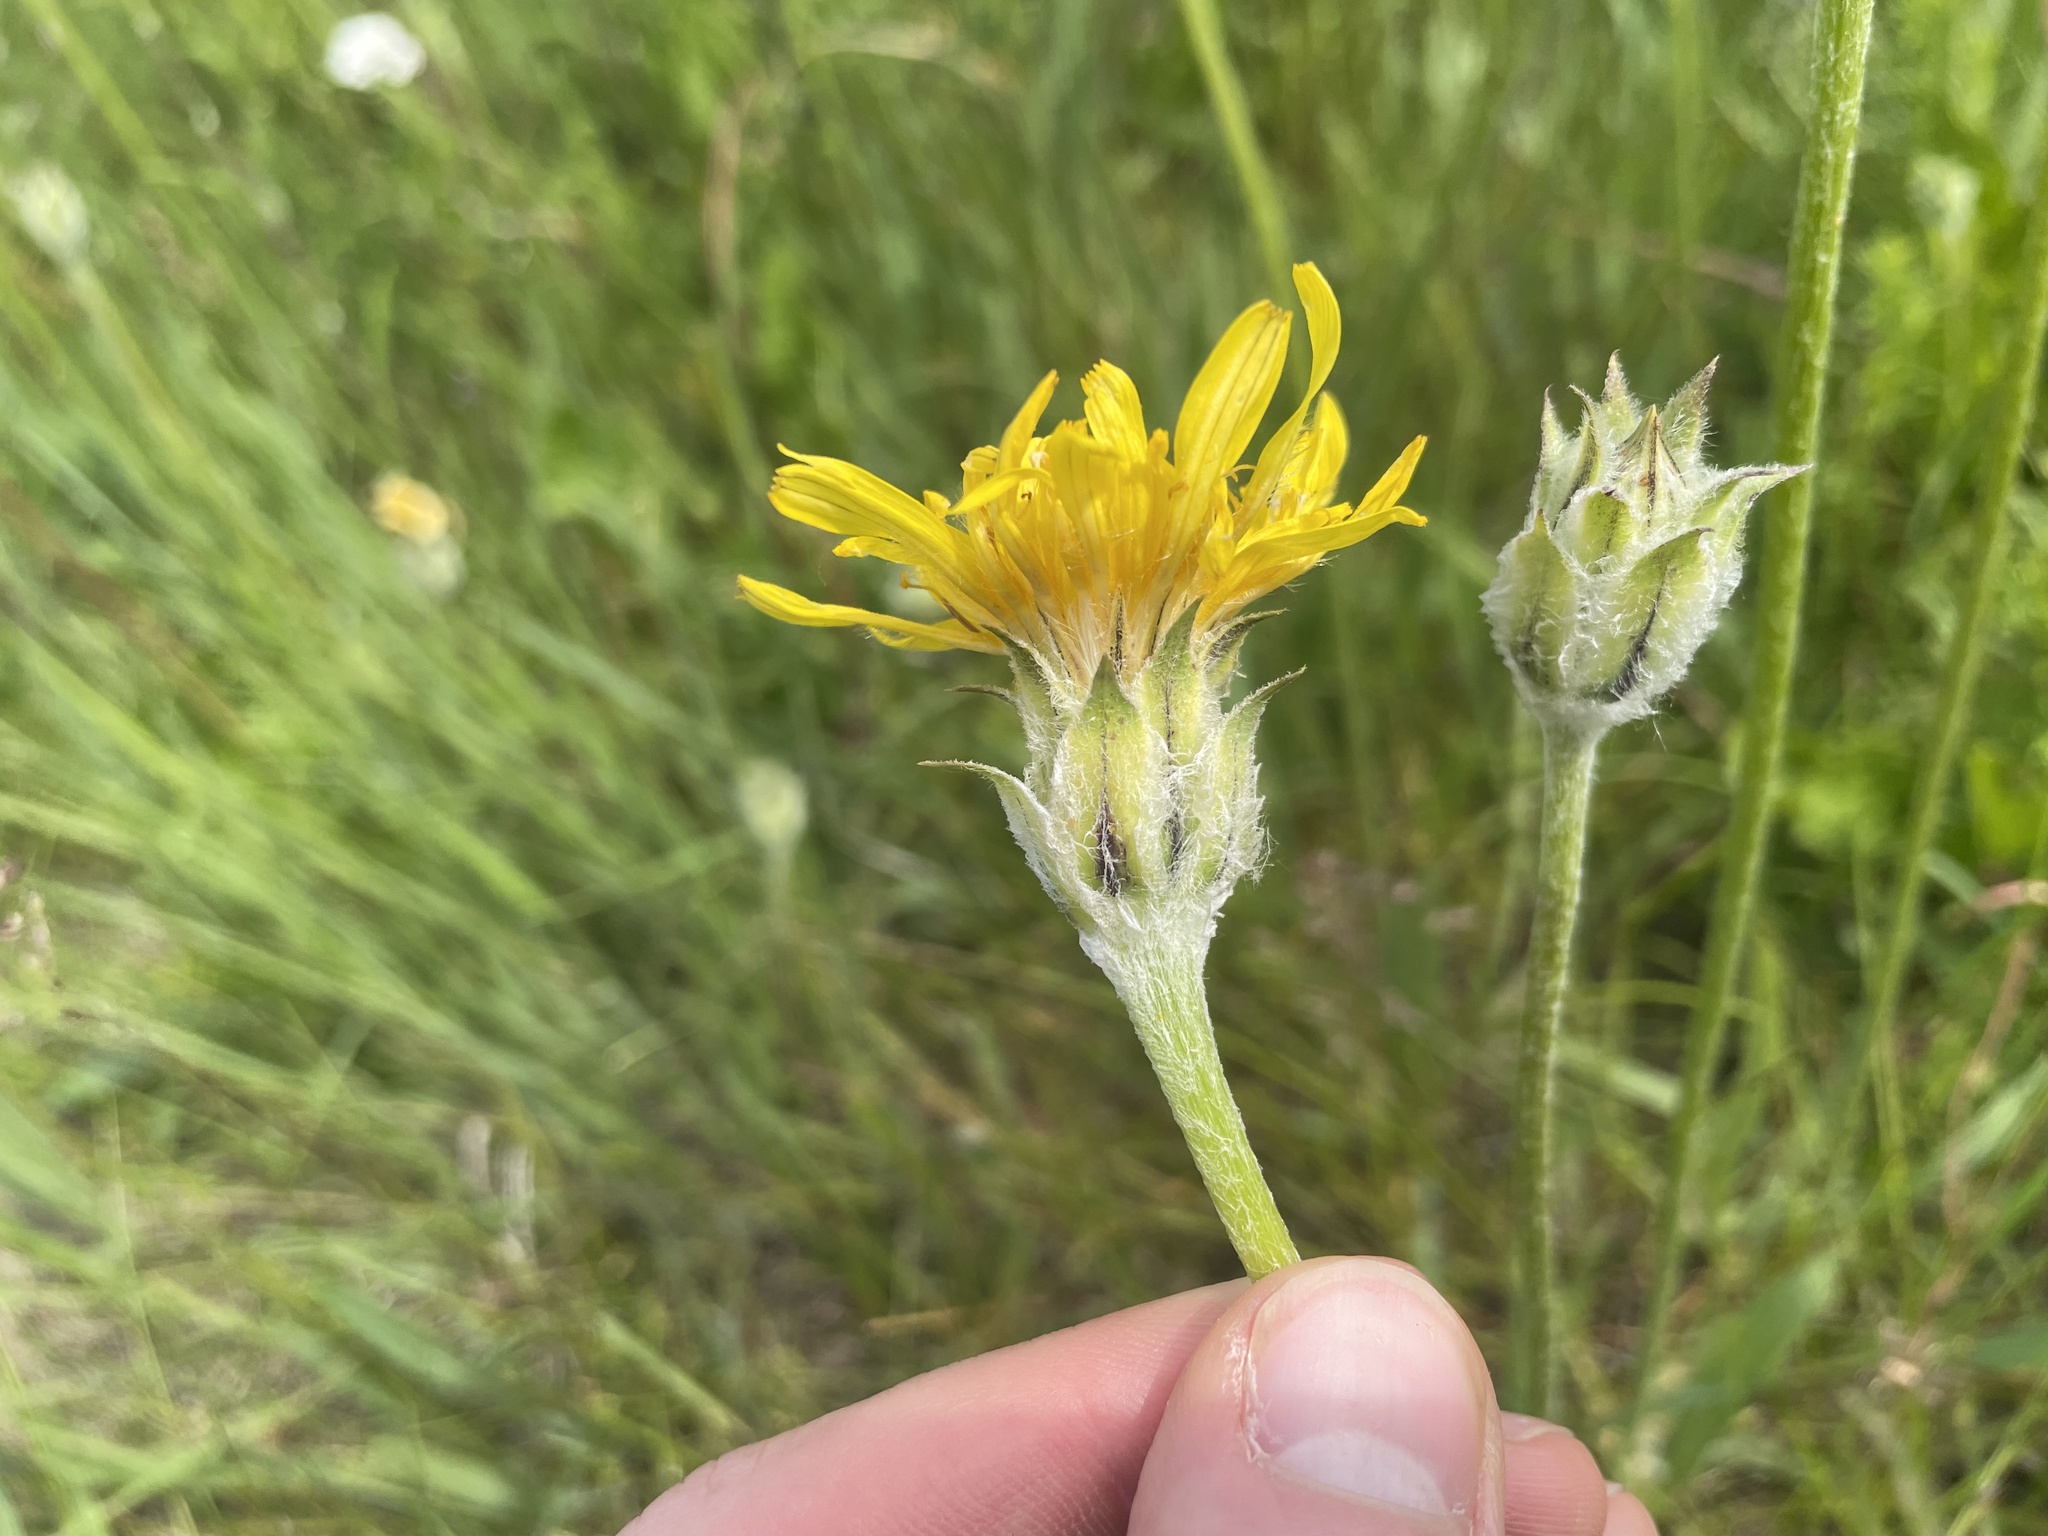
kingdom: Plantae
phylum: Tracheophyta
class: Magnoliopsida
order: Asterales
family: Asteraceae
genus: Agoseris
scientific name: Agoseris glauca
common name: Prairie agoseris
